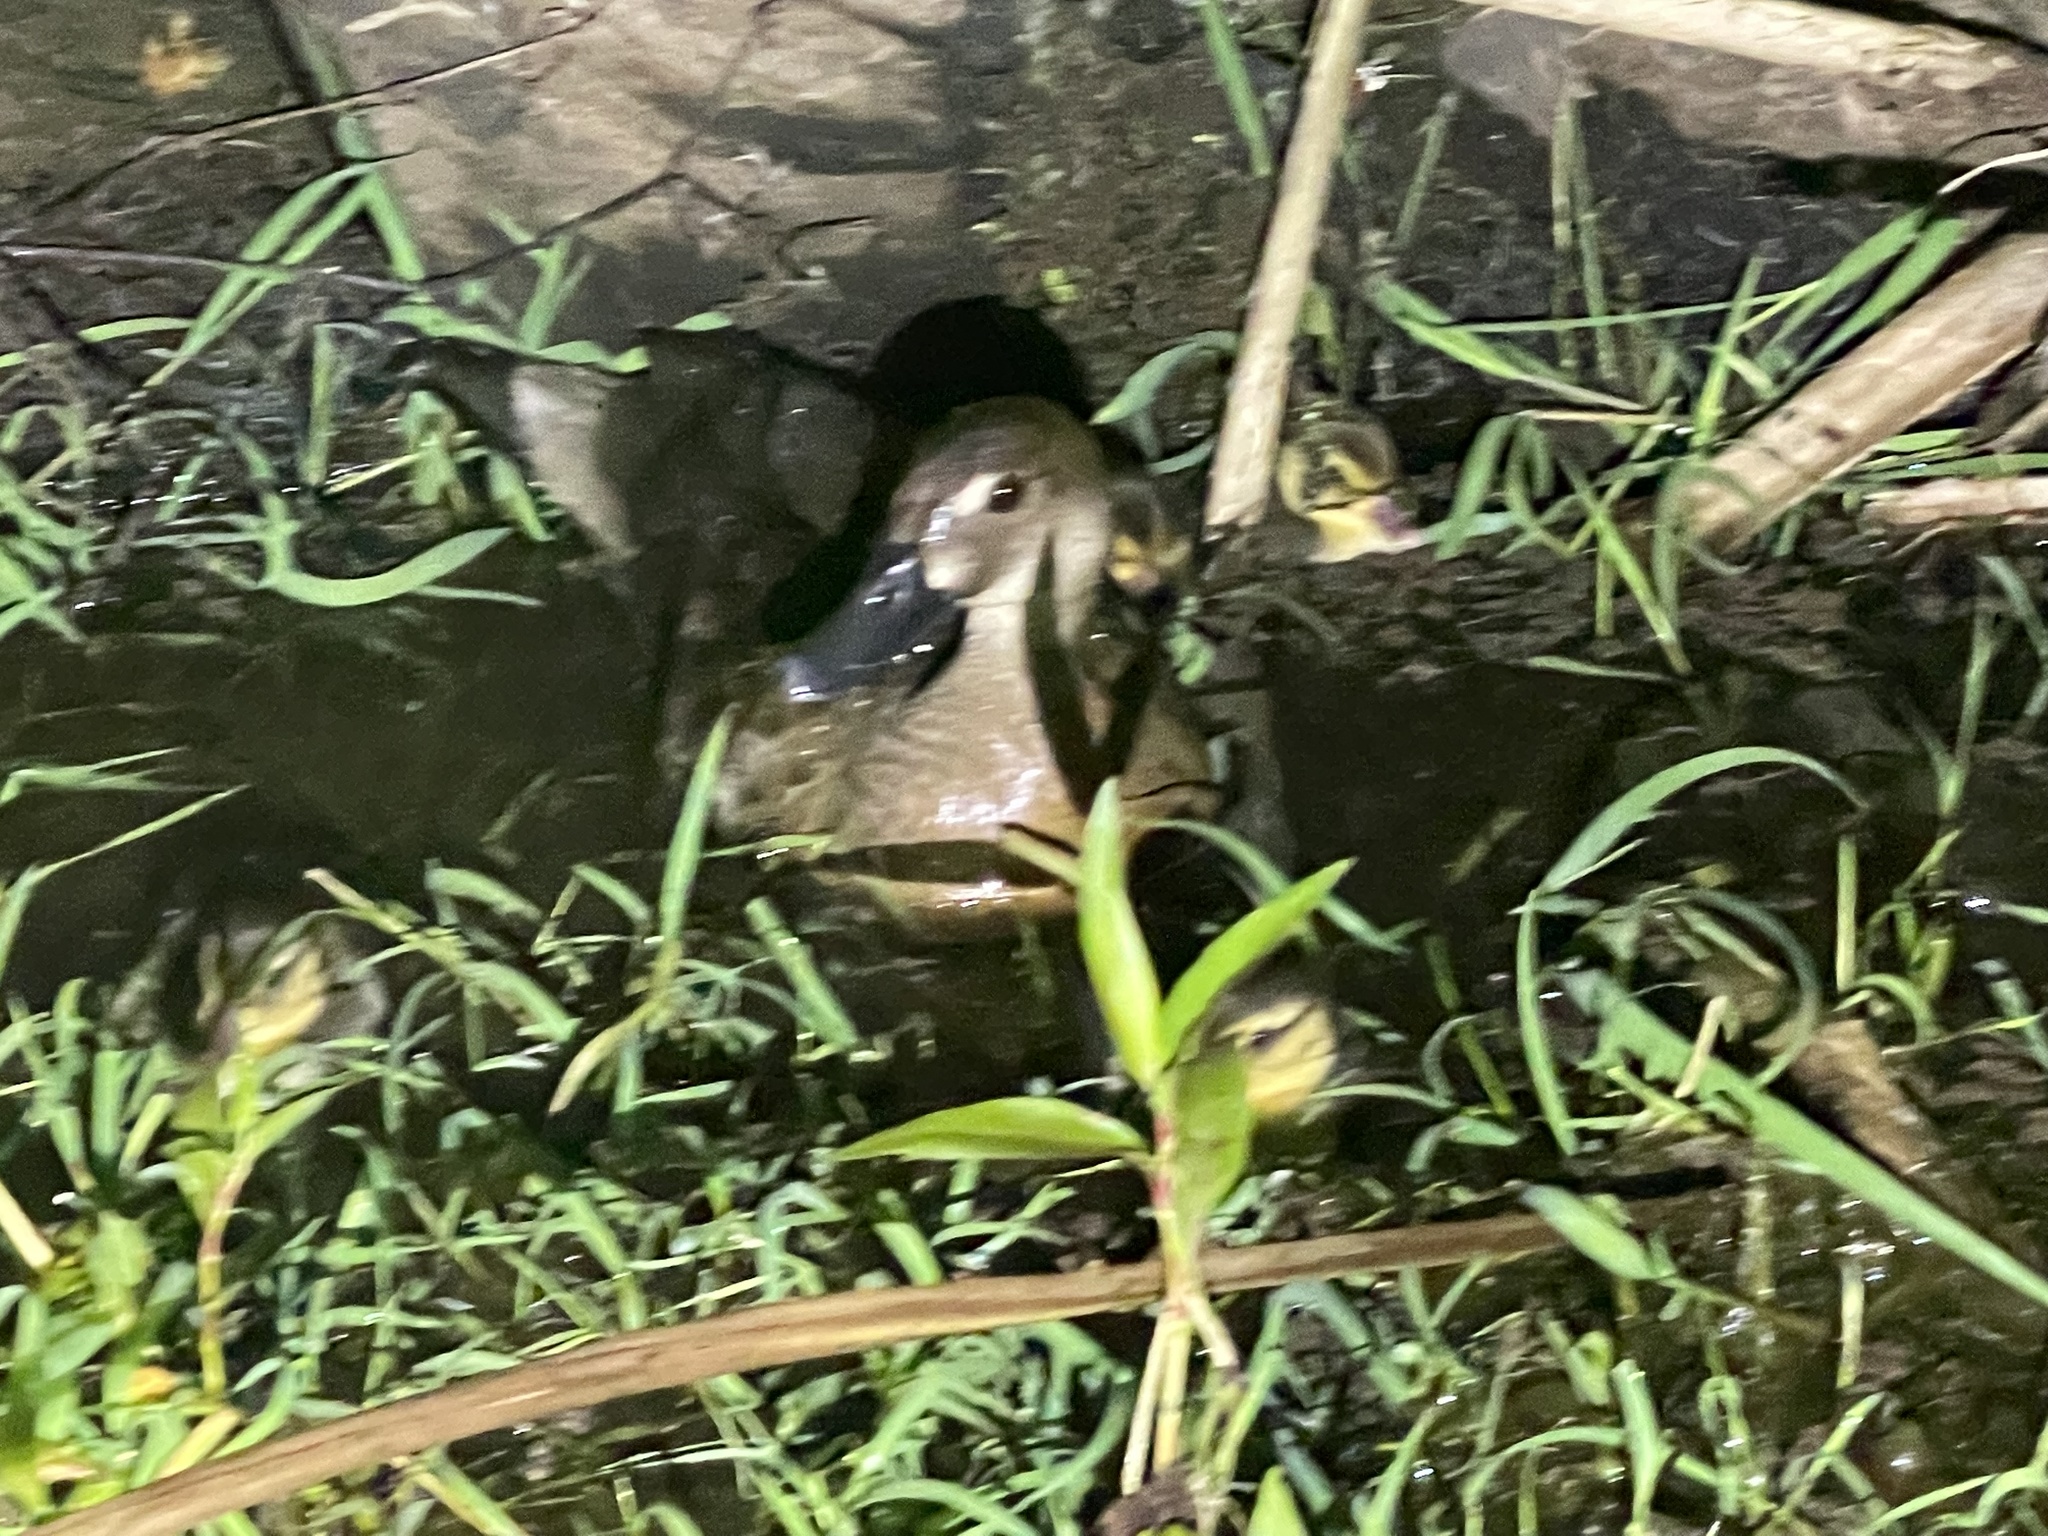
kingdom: Animalia
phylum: Chordata
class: Aves
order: Anseriformes
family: Anatidae
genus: Amazonetta
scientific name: Amazonetta brasiliensis
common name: Brazilian teal
